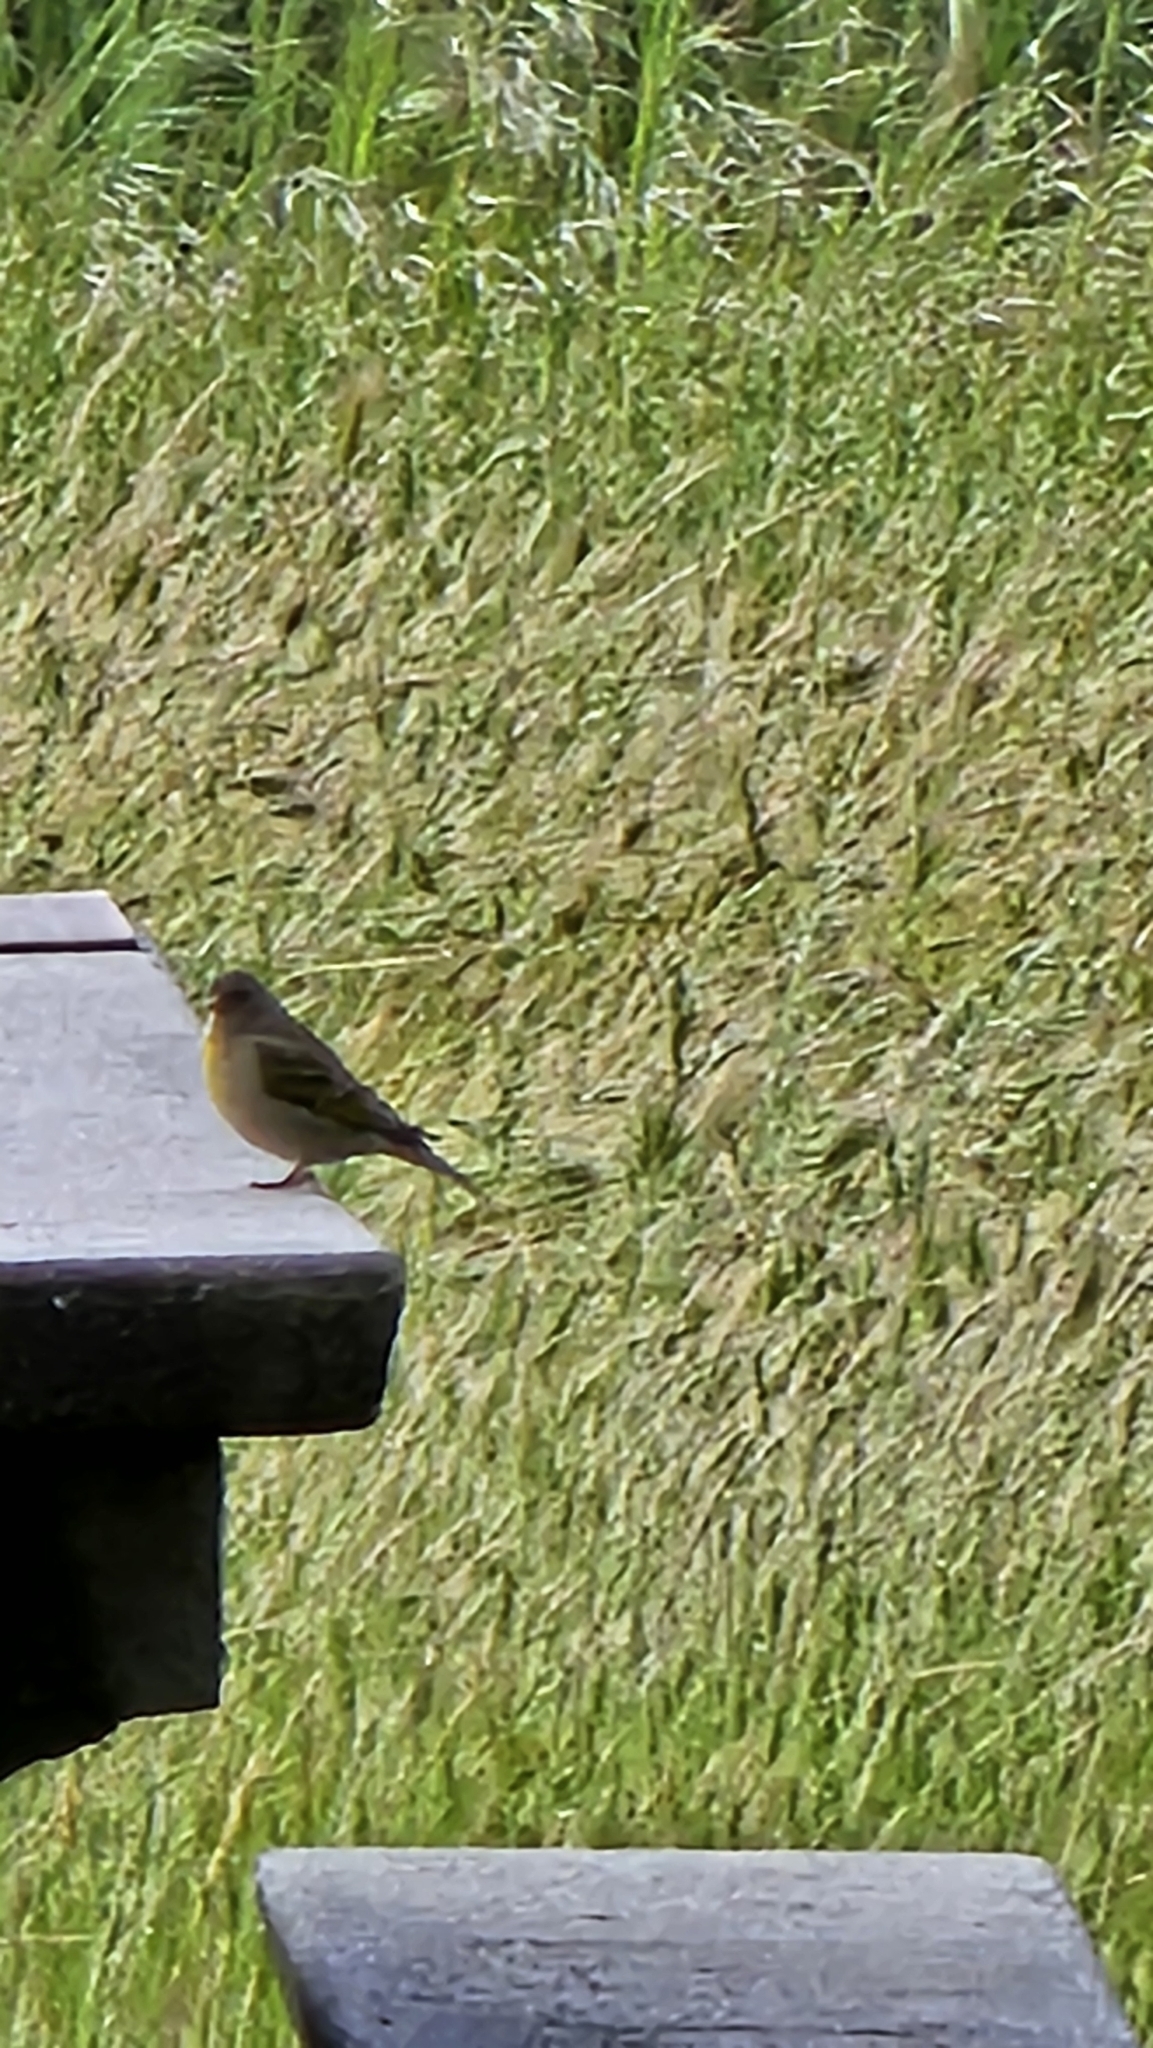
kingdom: Animalia
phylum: Chordata
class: Aves
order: Passeriformes
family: Fringillidae
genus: Spinus
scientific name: Spinus lawrencei
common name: Lawrence's goldfinch
